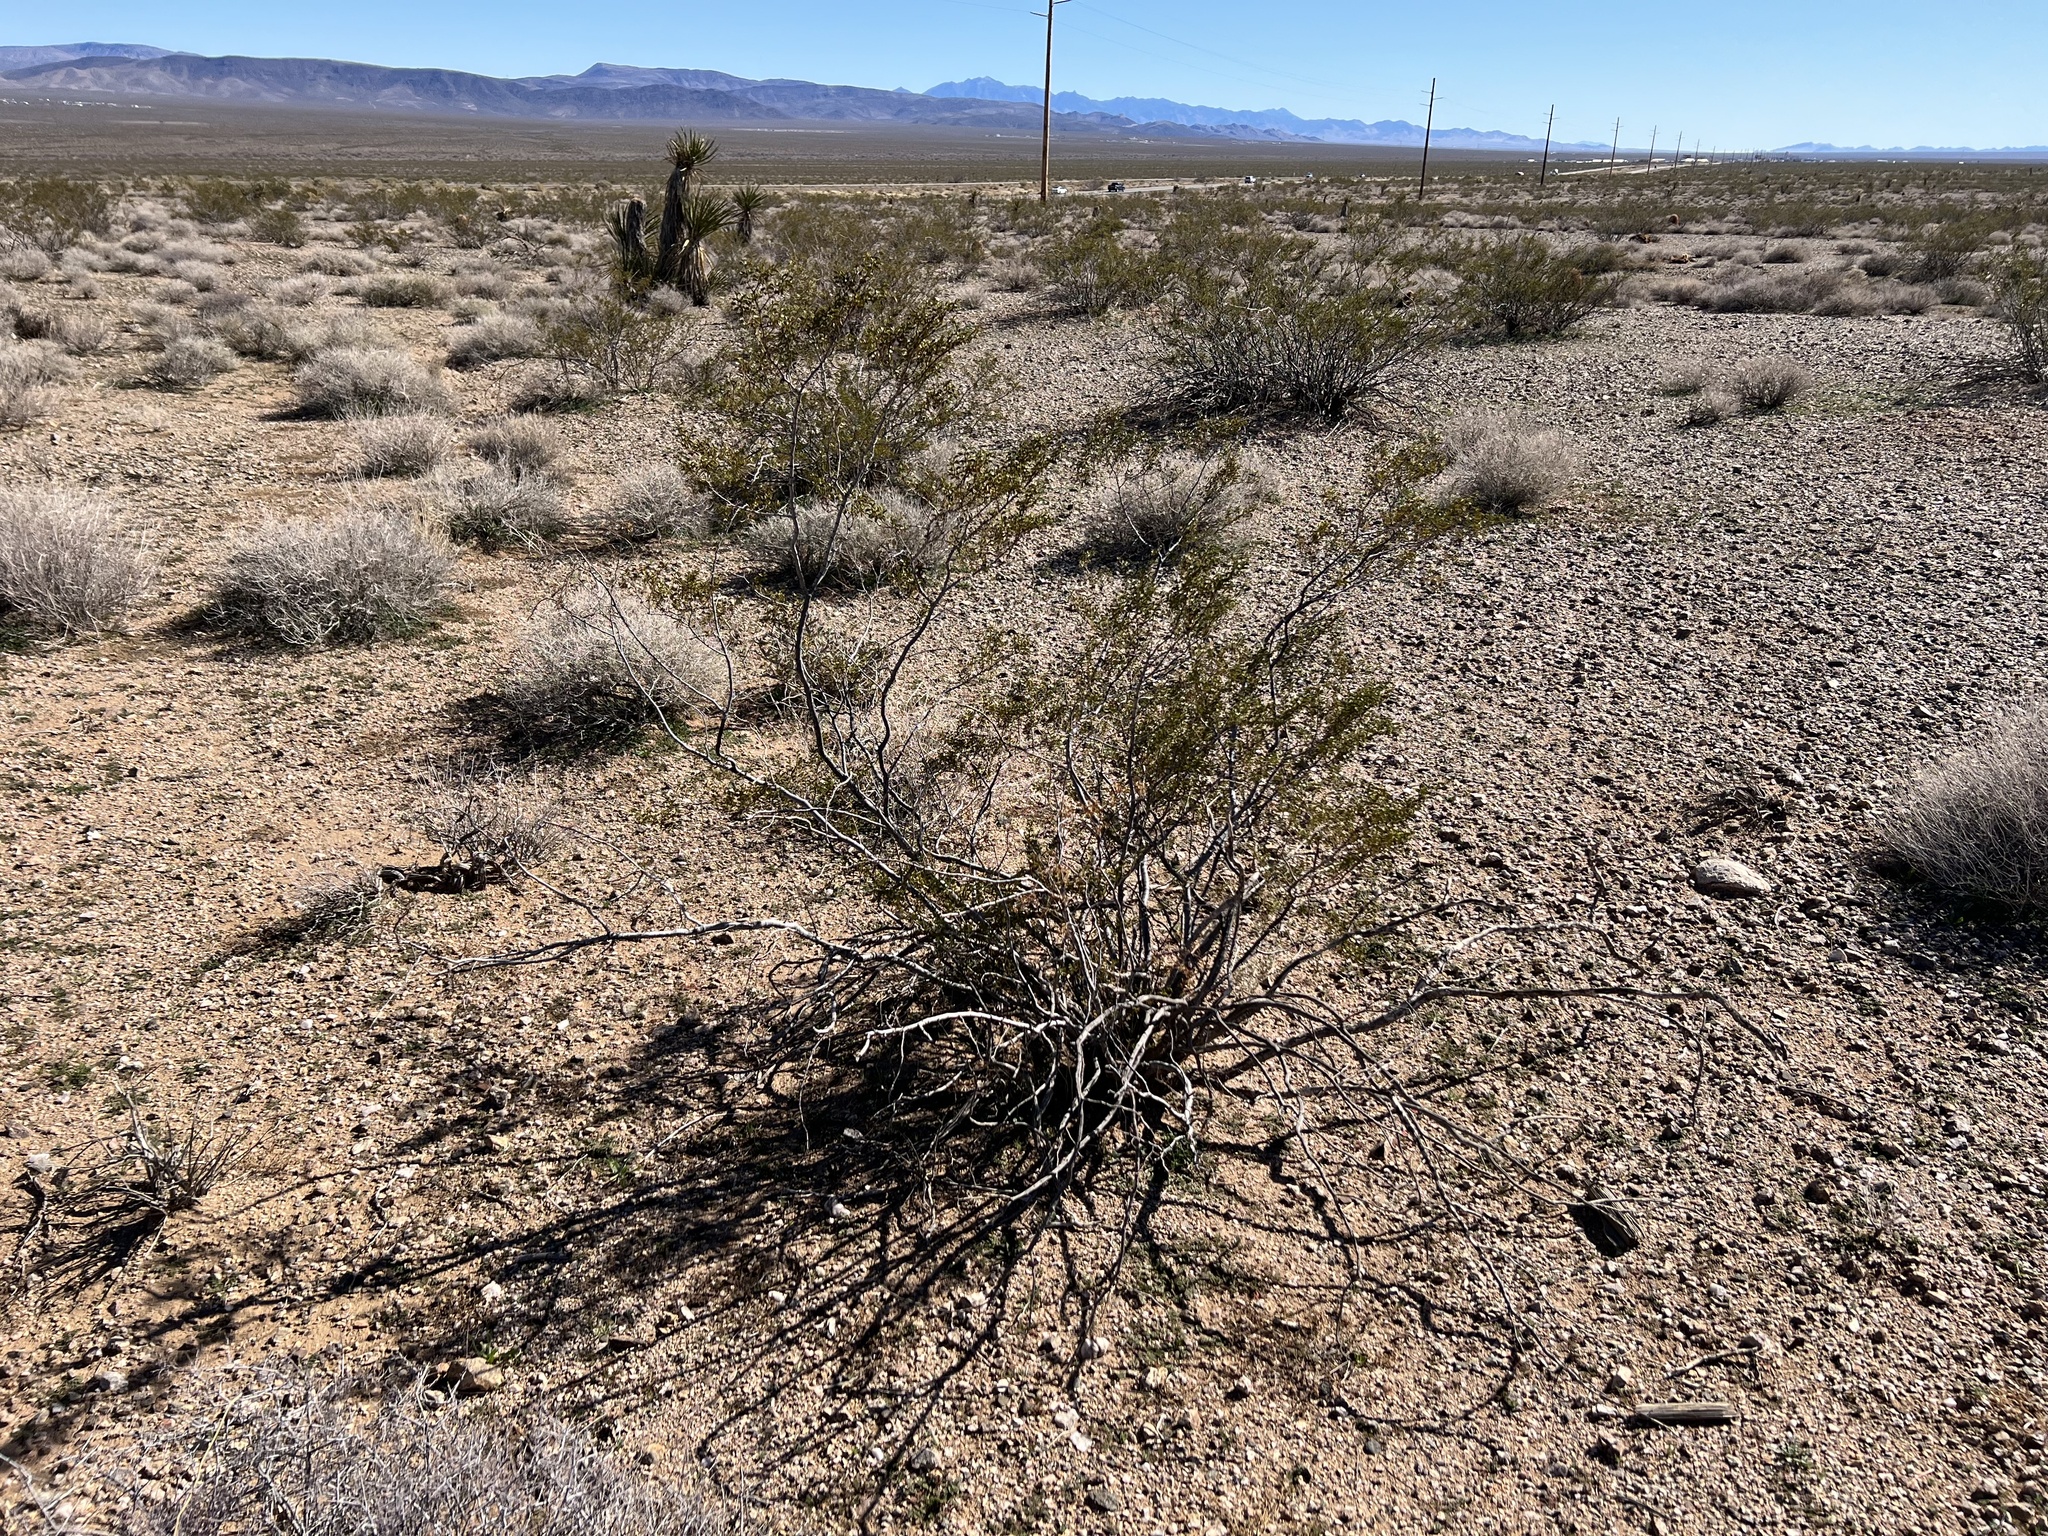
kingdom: Plantae
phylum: Tracheophyta
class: Magnoliopsida
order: Zygophyllales
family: Zygophyllaceae
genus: Larrea
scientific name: Larrea tridentata
